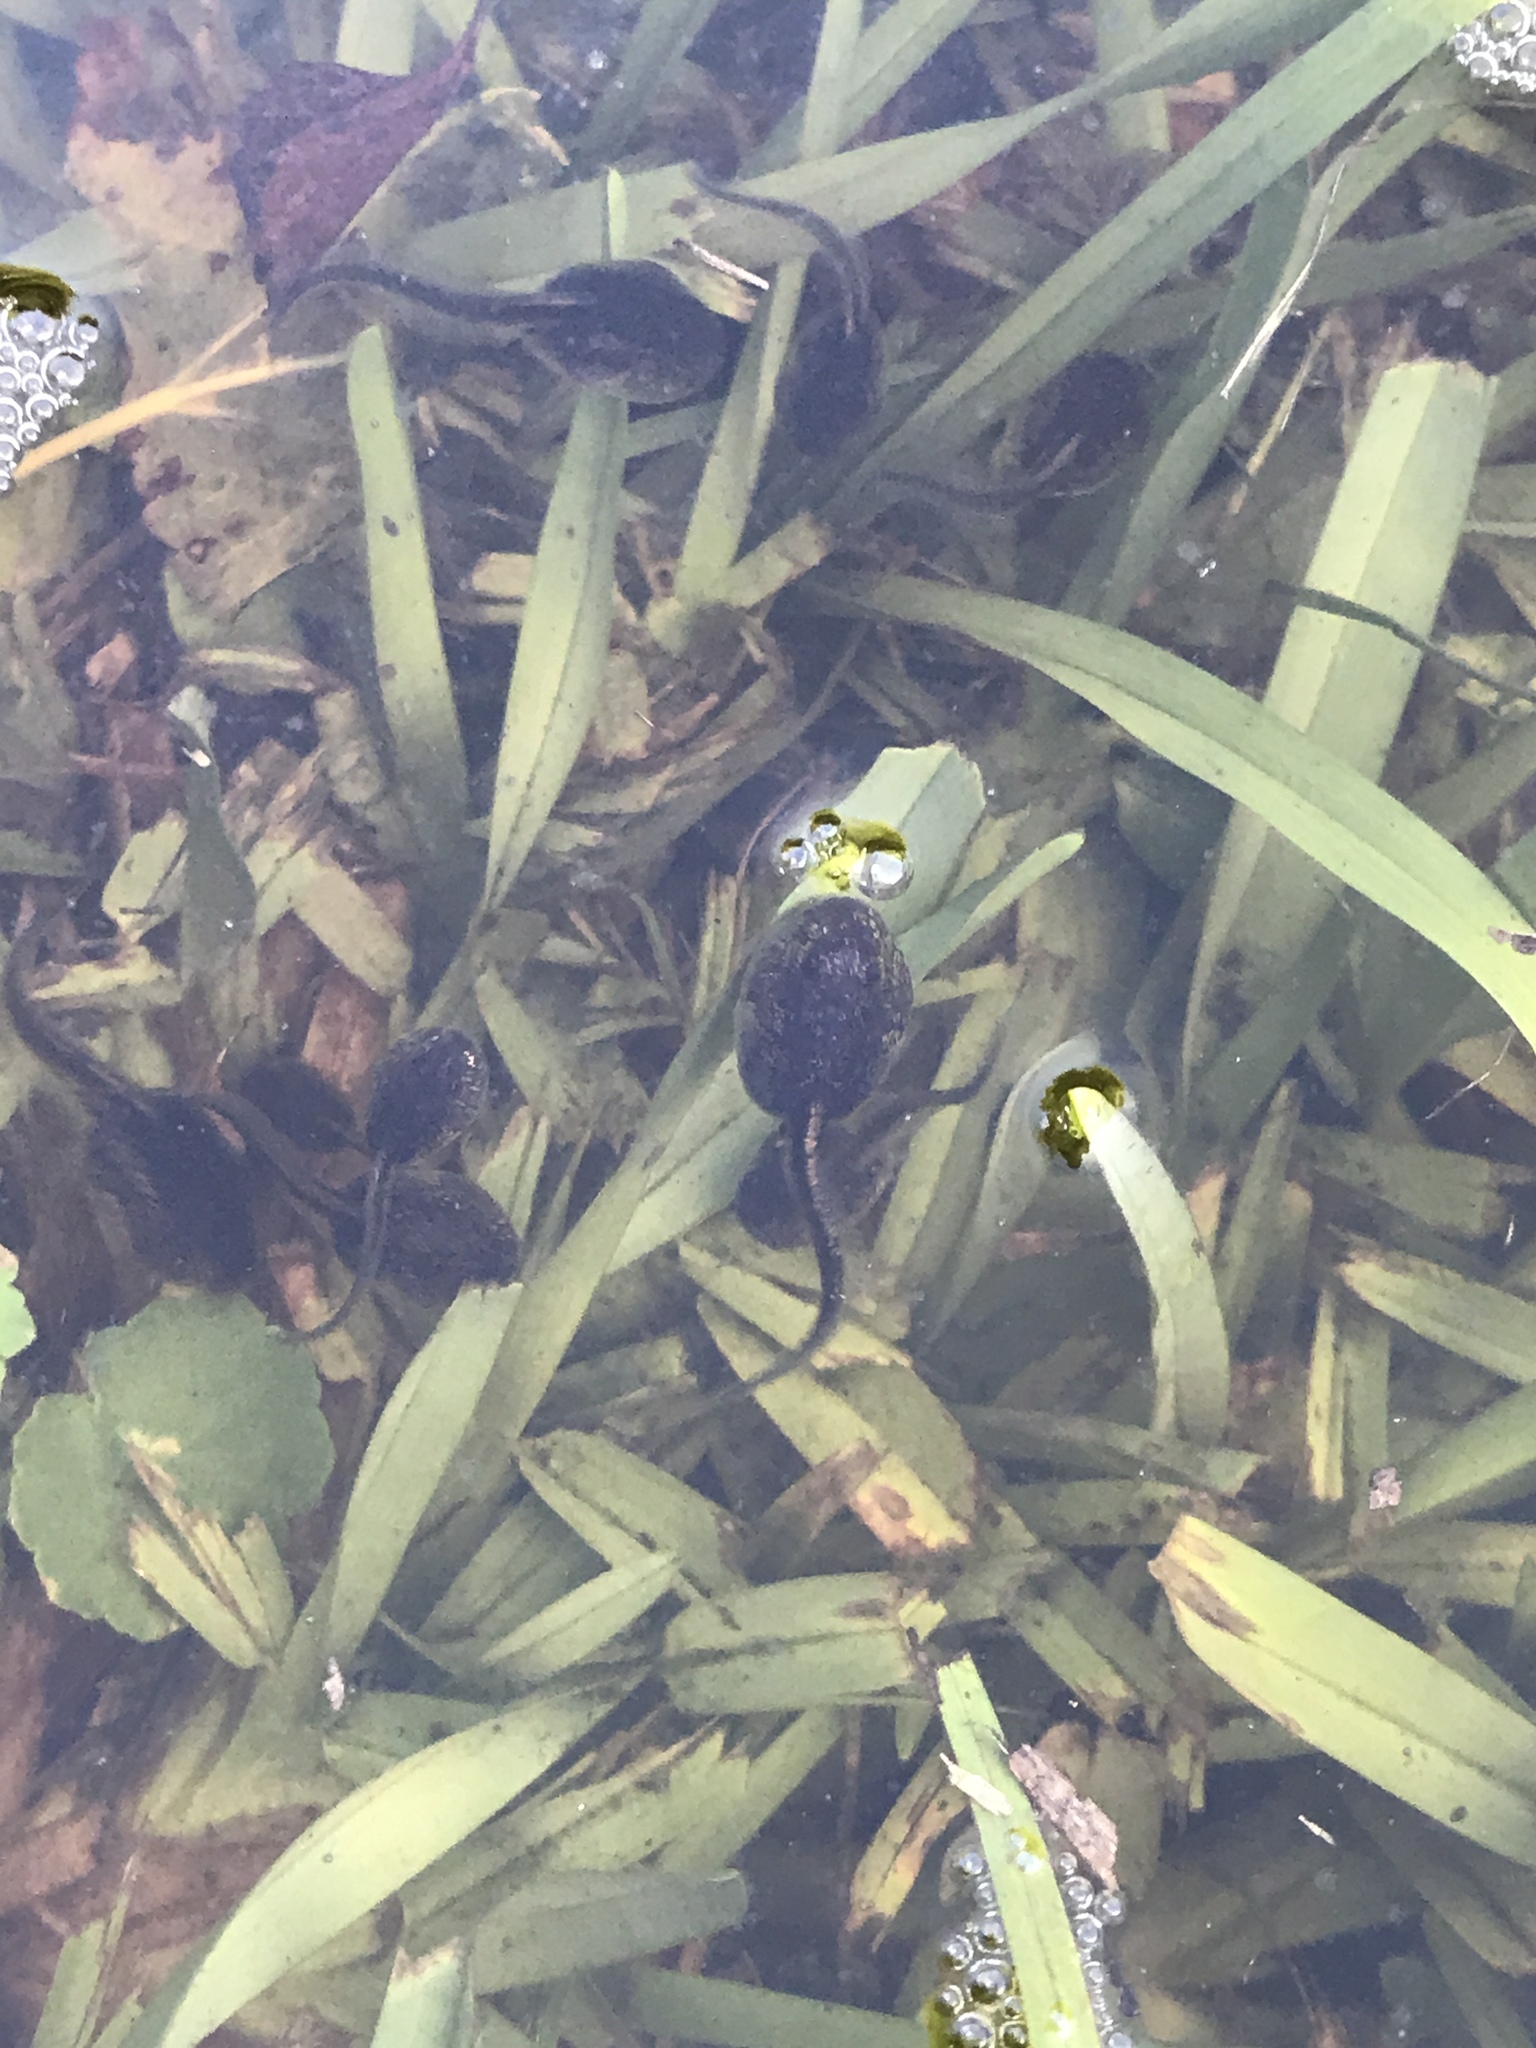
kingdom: Animalia
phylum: Chordata
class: Amphibia
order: Anura
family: Scaphiopodidae
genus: Scaphiopus
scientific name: Scaphiopus holbrookii
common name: Eastern spadefoot toad
